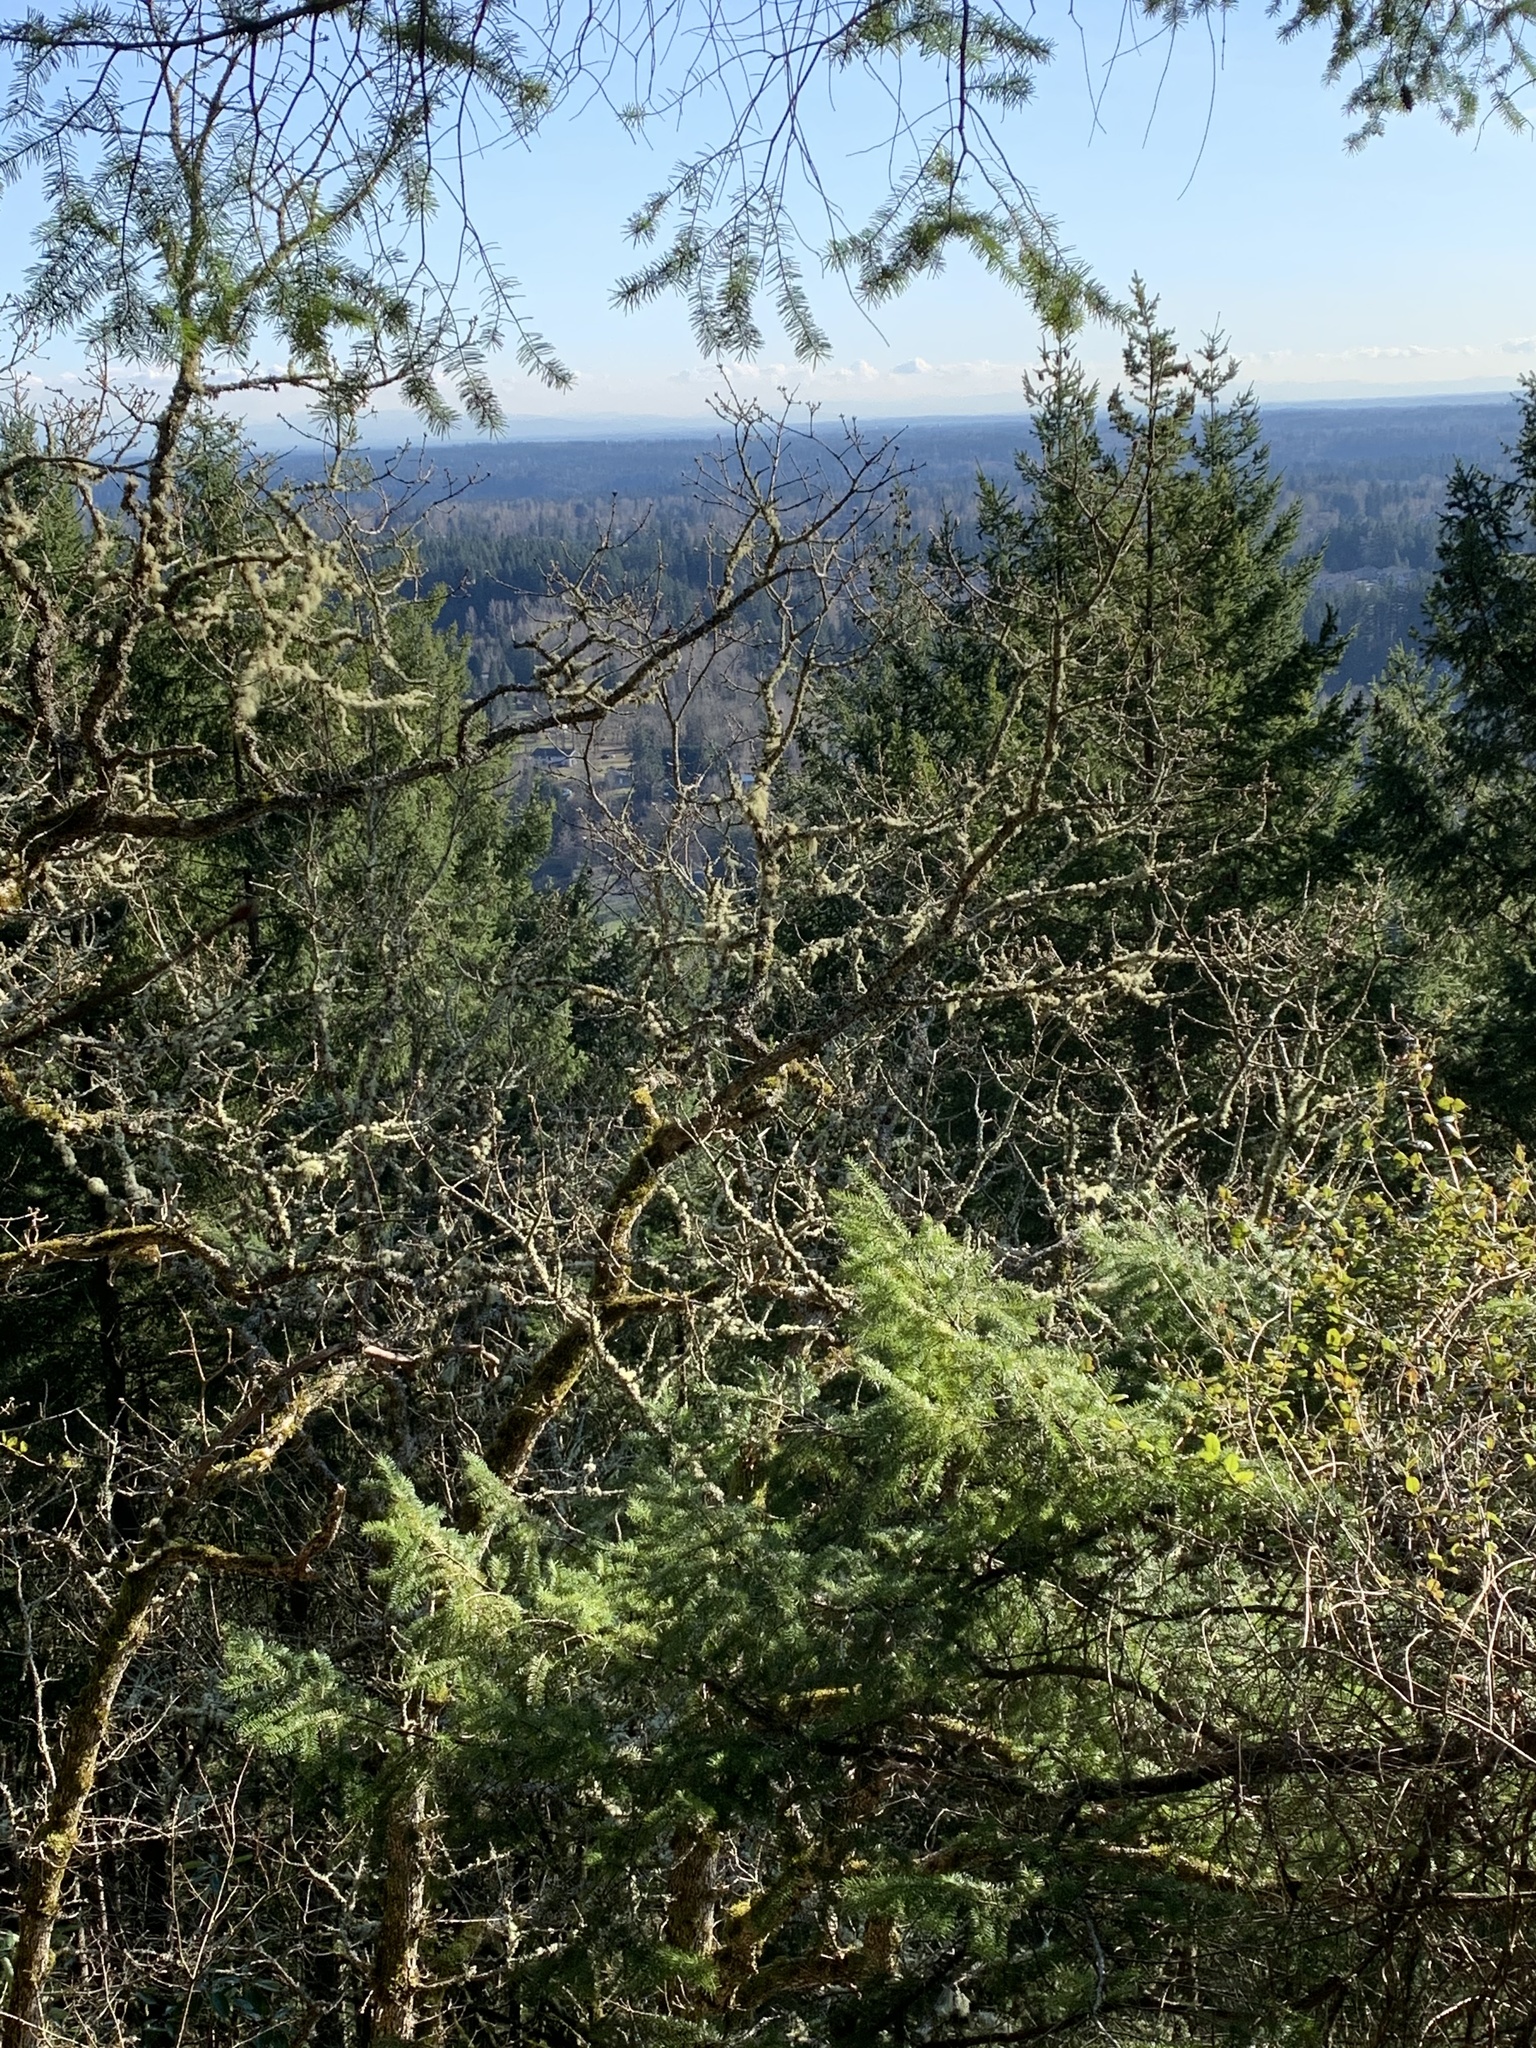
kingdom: Plantae
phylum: Tracheophyta
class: Magnoliopsida
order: Fagales
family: Fagaceae
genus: Quercus
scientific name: Quercus garryana
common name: Garry oak
